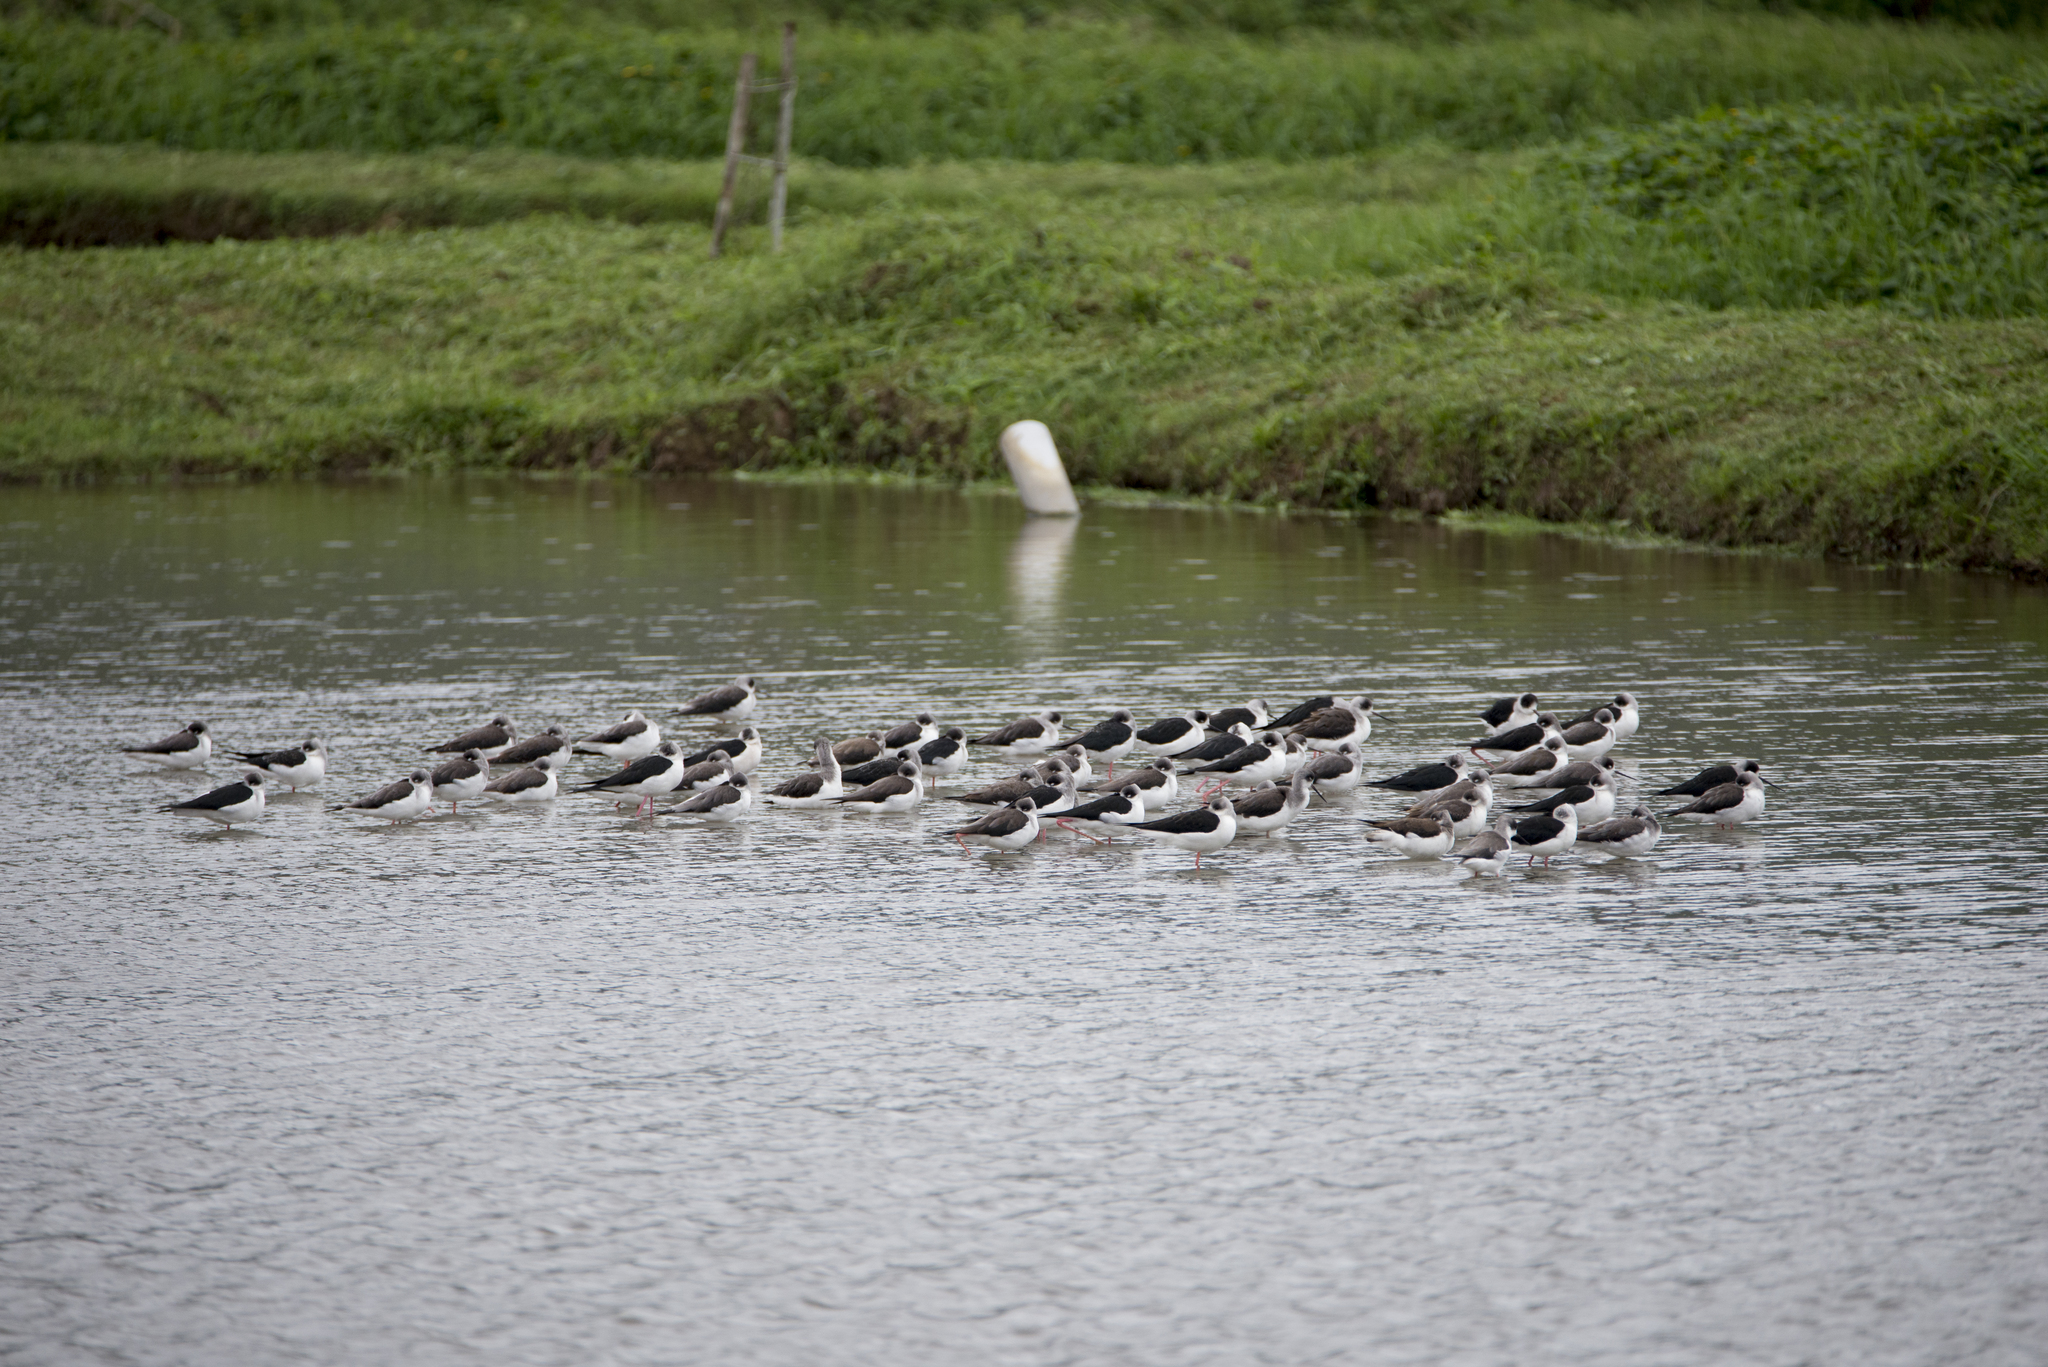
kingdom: Animalia
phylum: Chordata
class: Aves
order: Charadriiformes
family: Recurvirostridae
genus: Himantopus
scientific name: Himantopus himantopus
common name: Black-winged stilt
